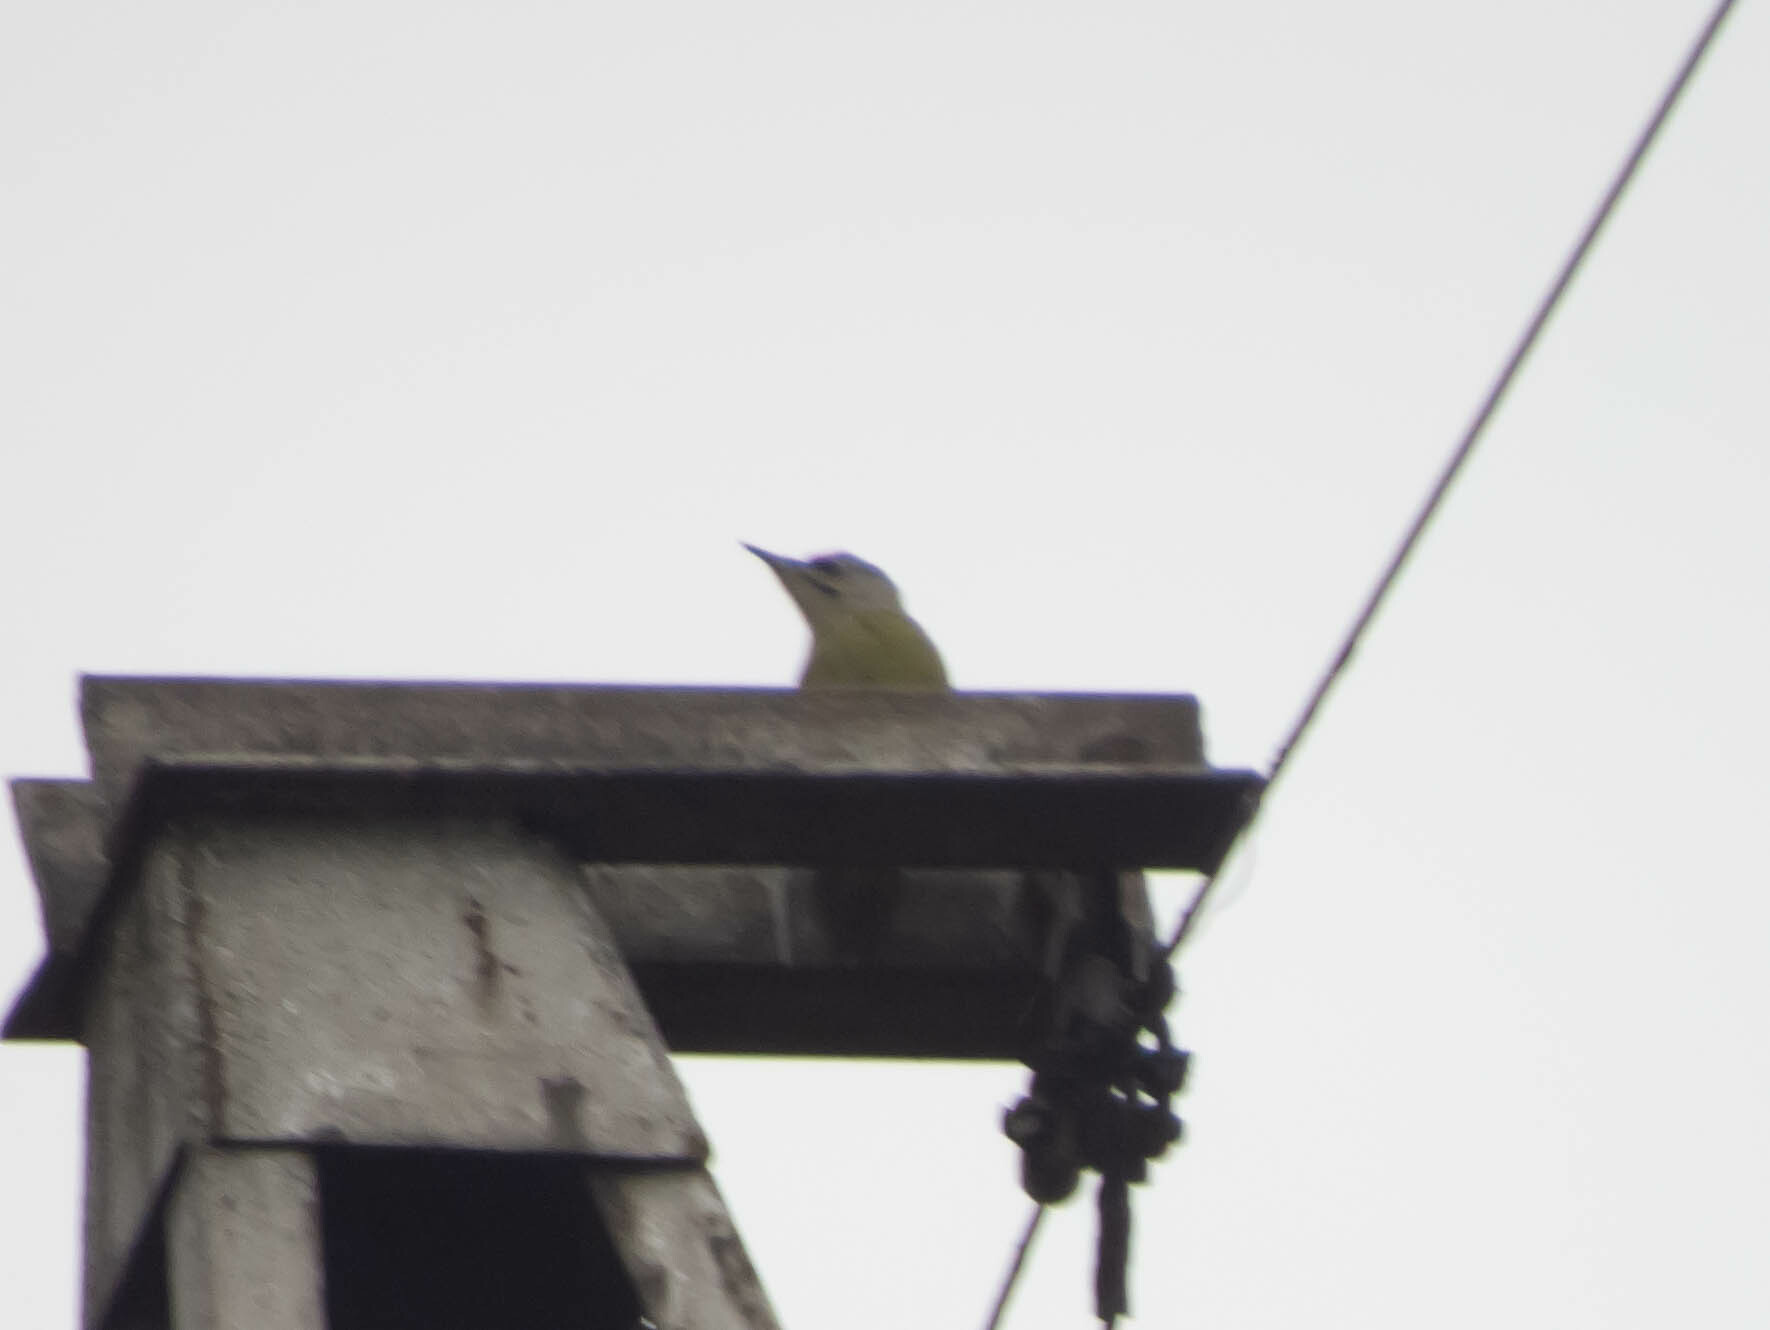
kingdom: Animalia
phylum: Chordata
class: Aves
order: Piciformes
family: Picidae
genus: Picus
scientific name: Picus canus
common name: Grey-headed woodpecker
